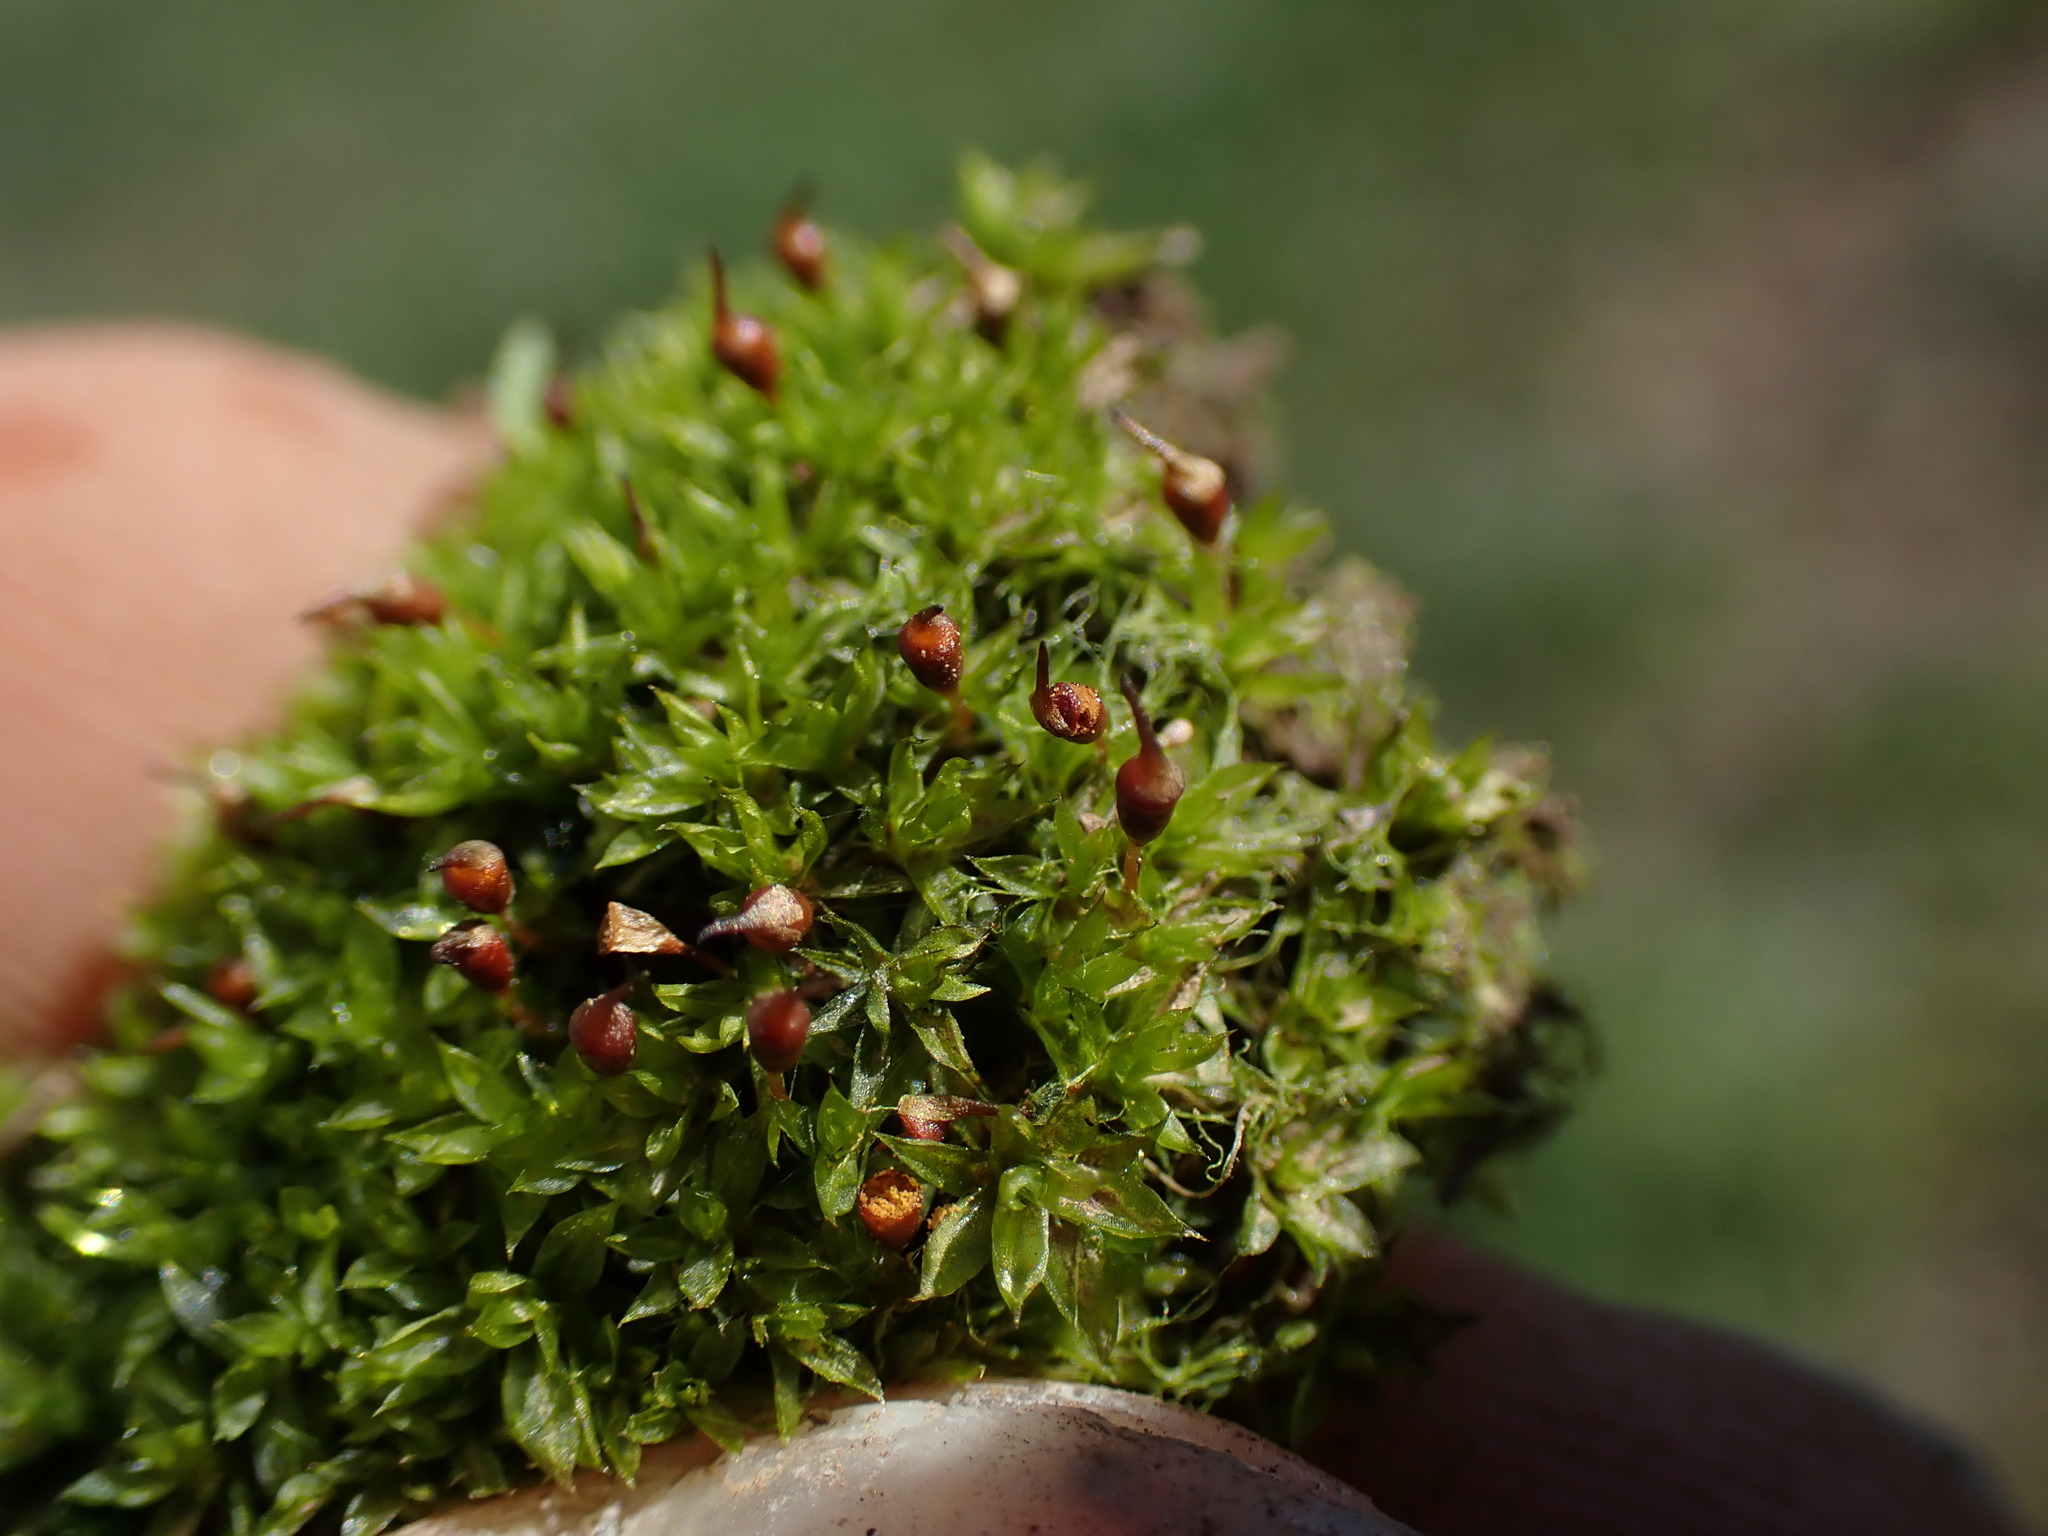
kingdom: Plantae
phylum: Bryophyta
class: Bryopsida
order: Pottiales
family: Pottiaceae
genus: Tortula
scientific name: Tortula truncata
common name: Truncated screw moss
